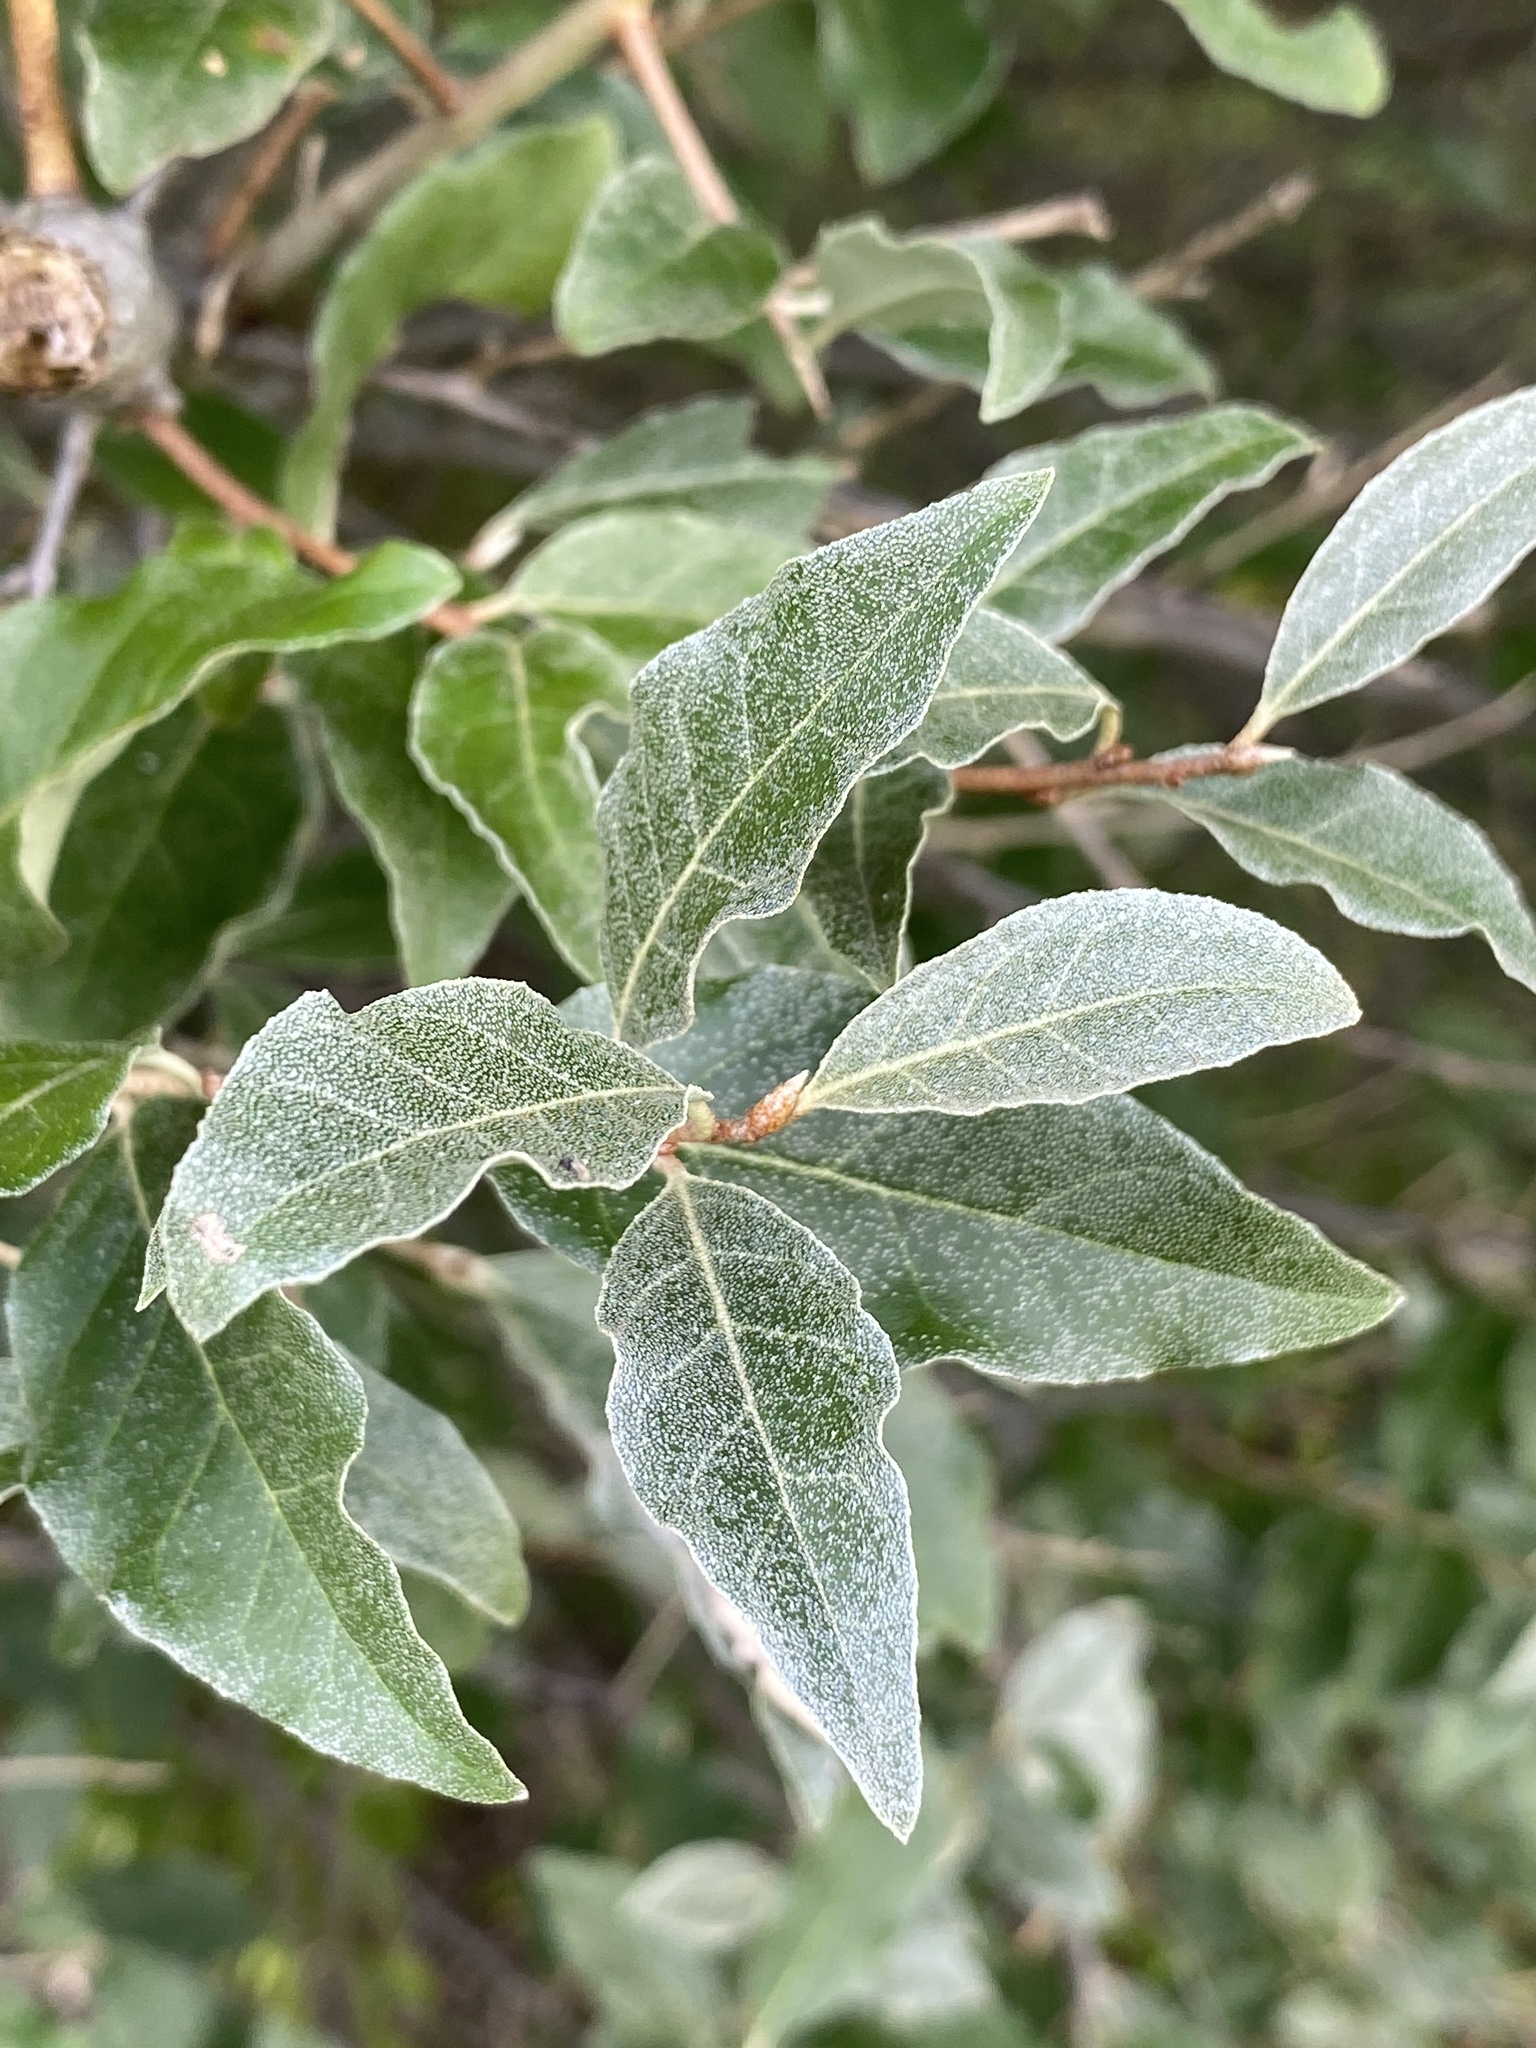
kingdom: Plantae
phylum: Tracheophyta
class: Magnoliopsida
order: Rosales
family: Elaeagnaceae
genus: Elaeagnus
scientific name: Elaeagnus umbellata
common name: Autumn olive
